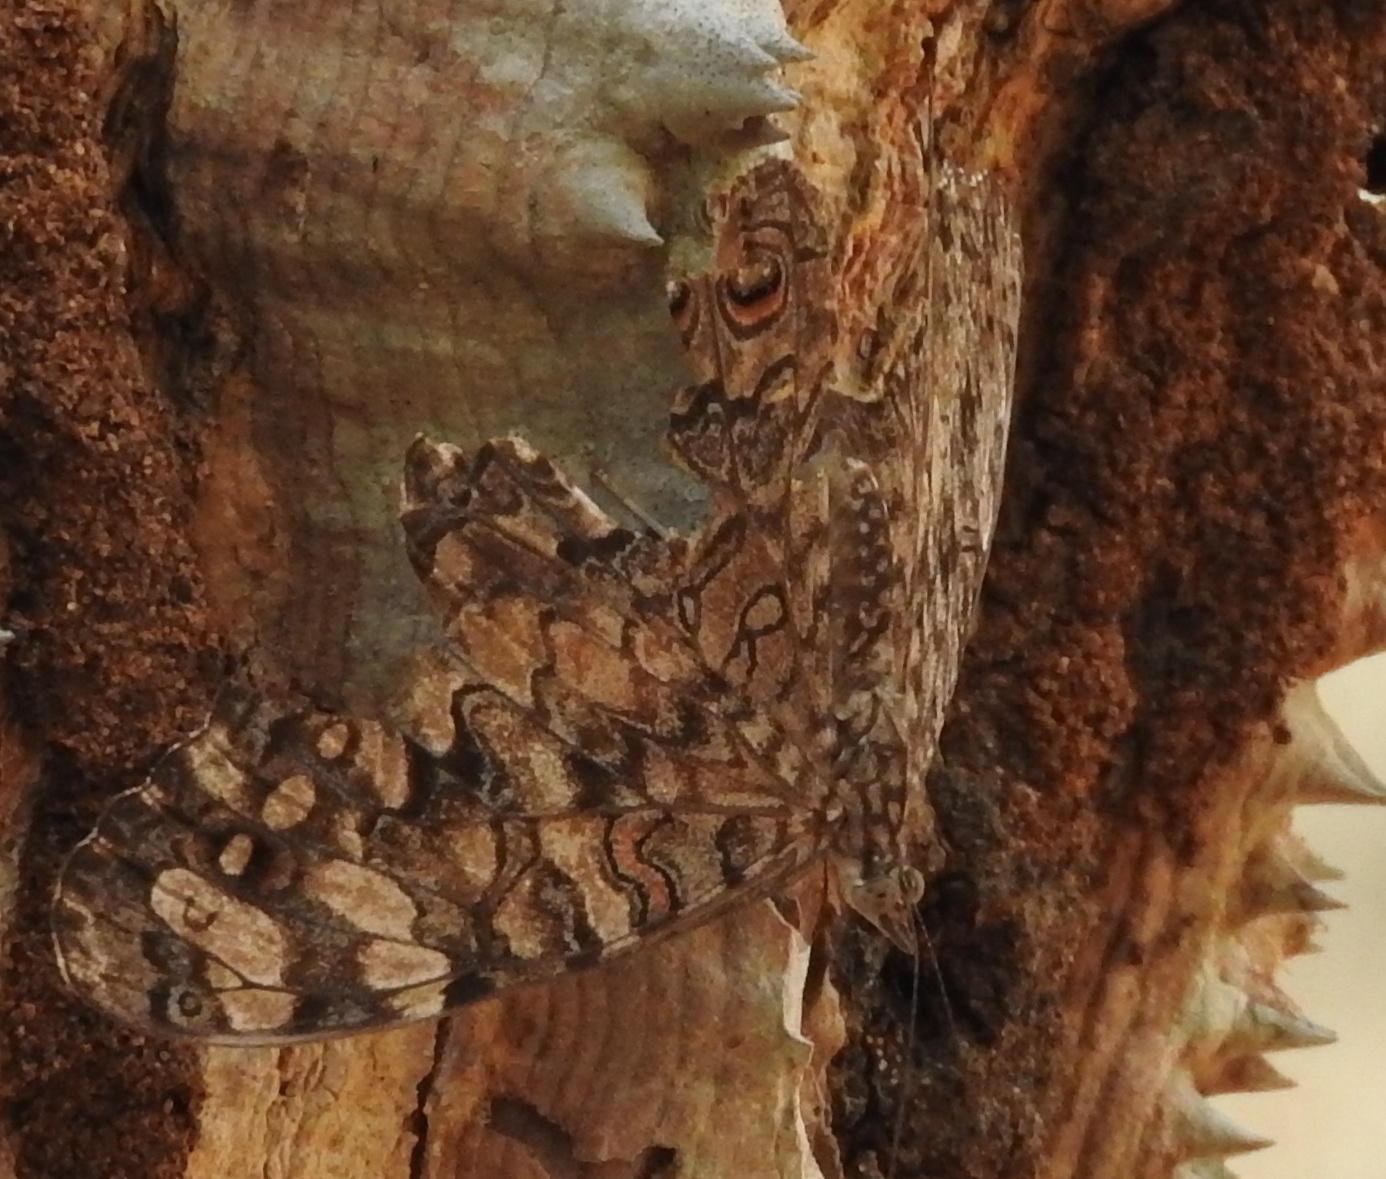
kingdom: Animalia
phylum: Arthropoda
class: Insecta
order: Lepidoptera
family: Nymphalidae
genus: Hamadryas
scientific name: Hamadryas februa
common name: Gray cracker
